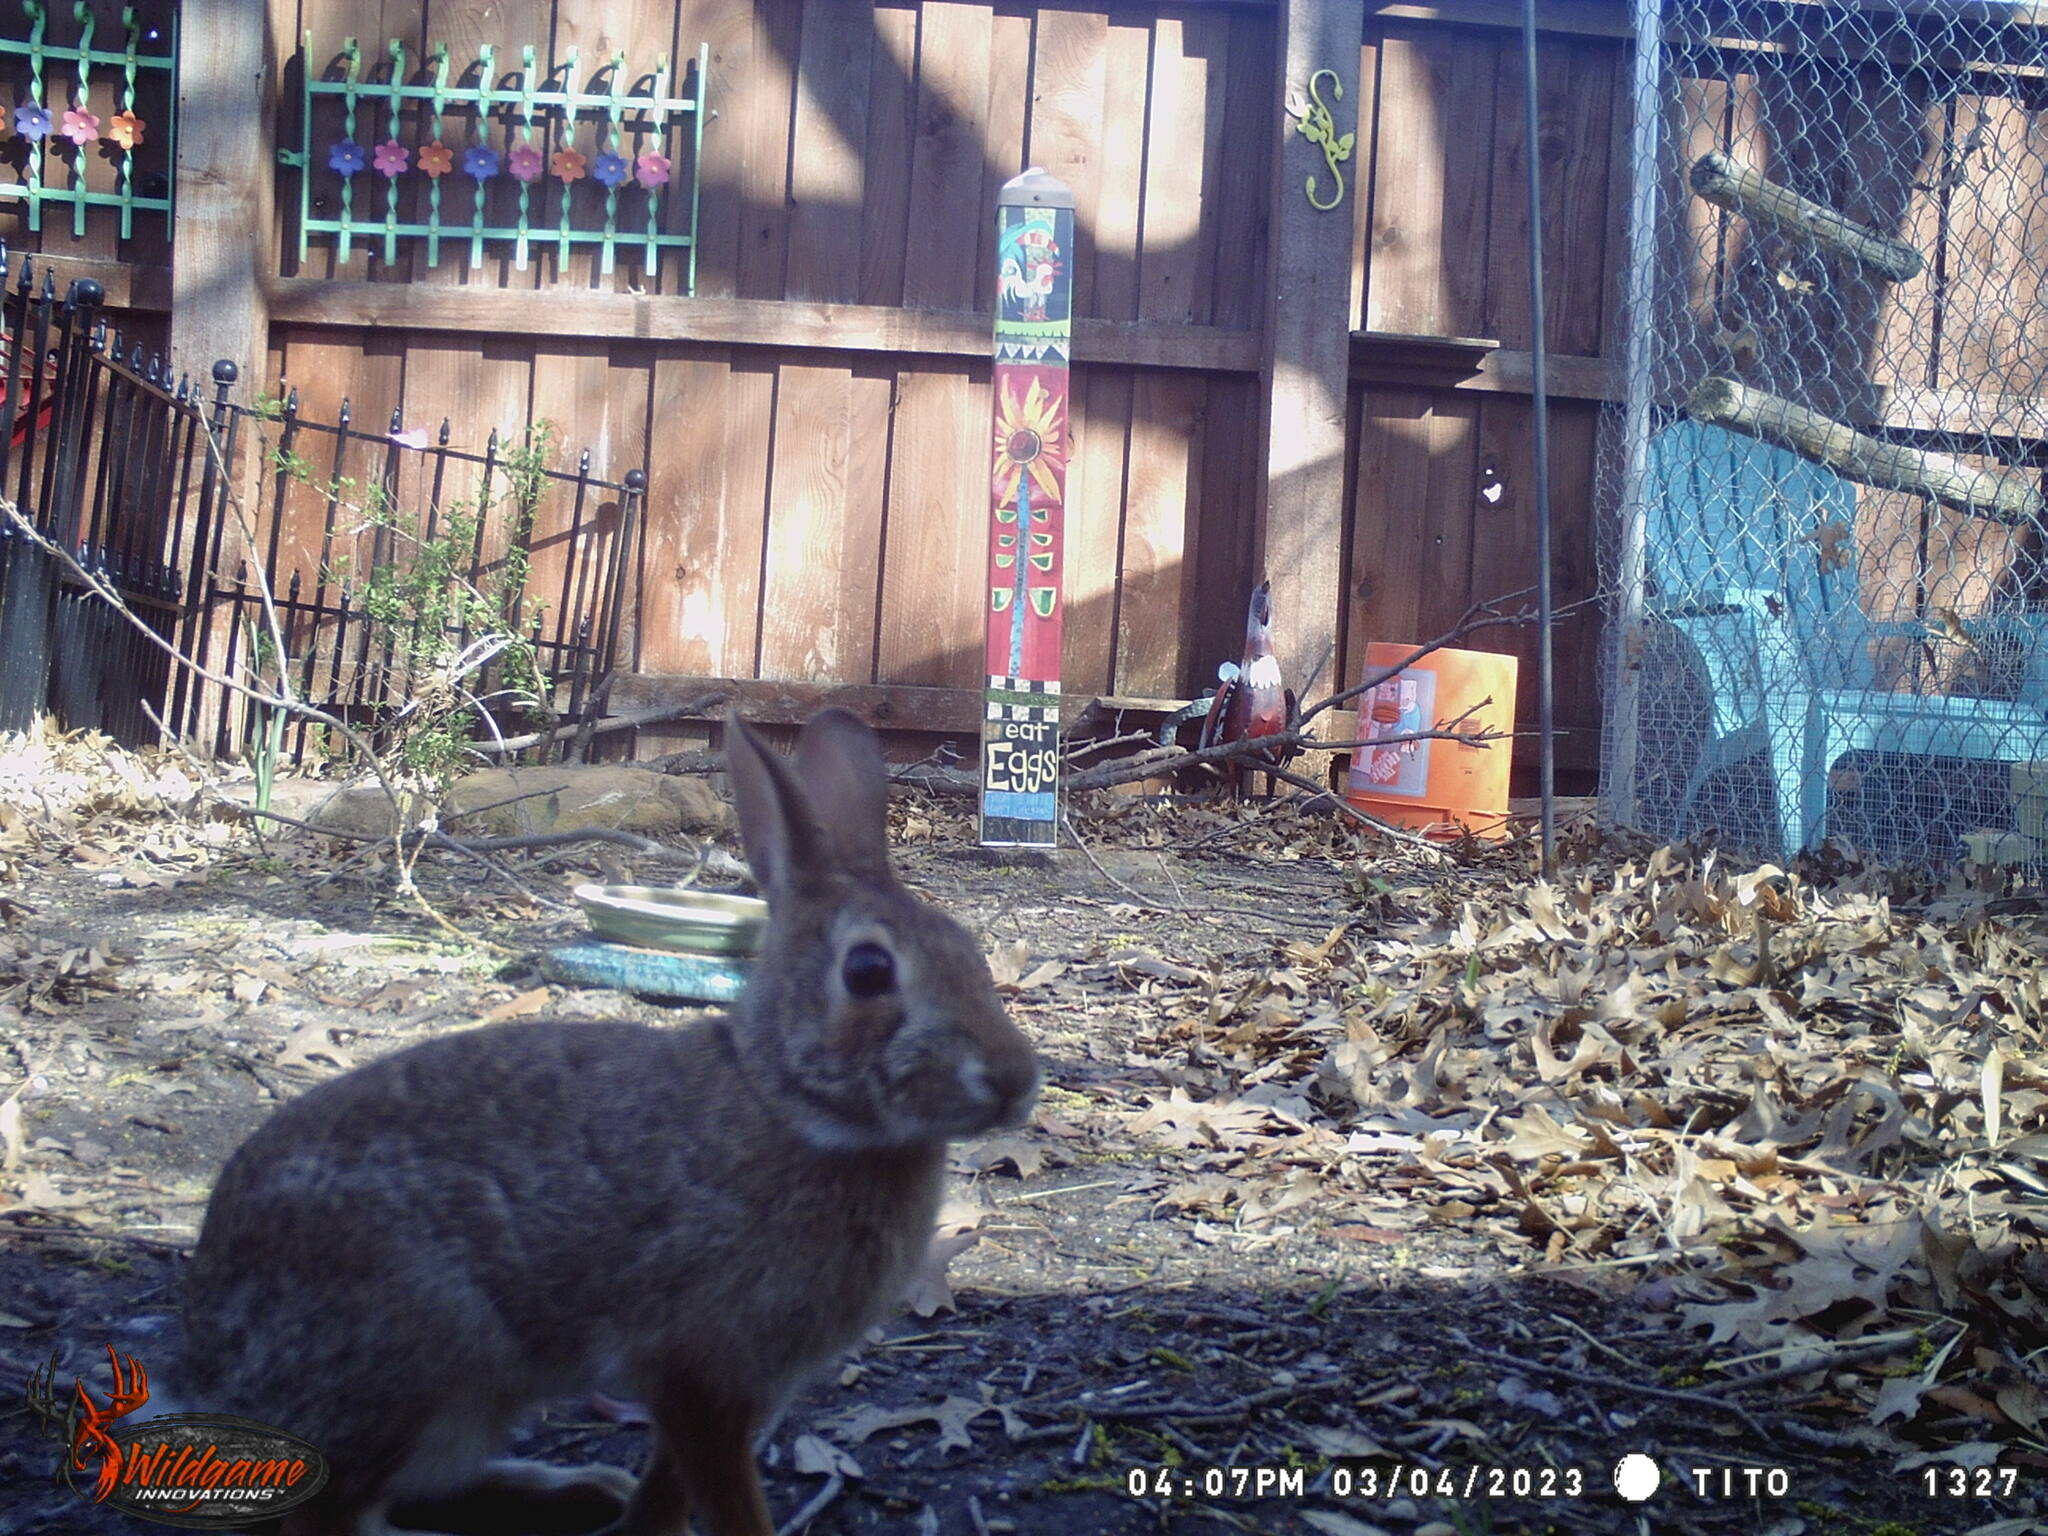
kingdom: Animalia
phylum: Chordata
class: Mammalia
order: Lagomorpha
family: Leporidae
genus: Sylvilagus
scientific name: Sylvilagus floridanus
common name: Eastern cottontail
